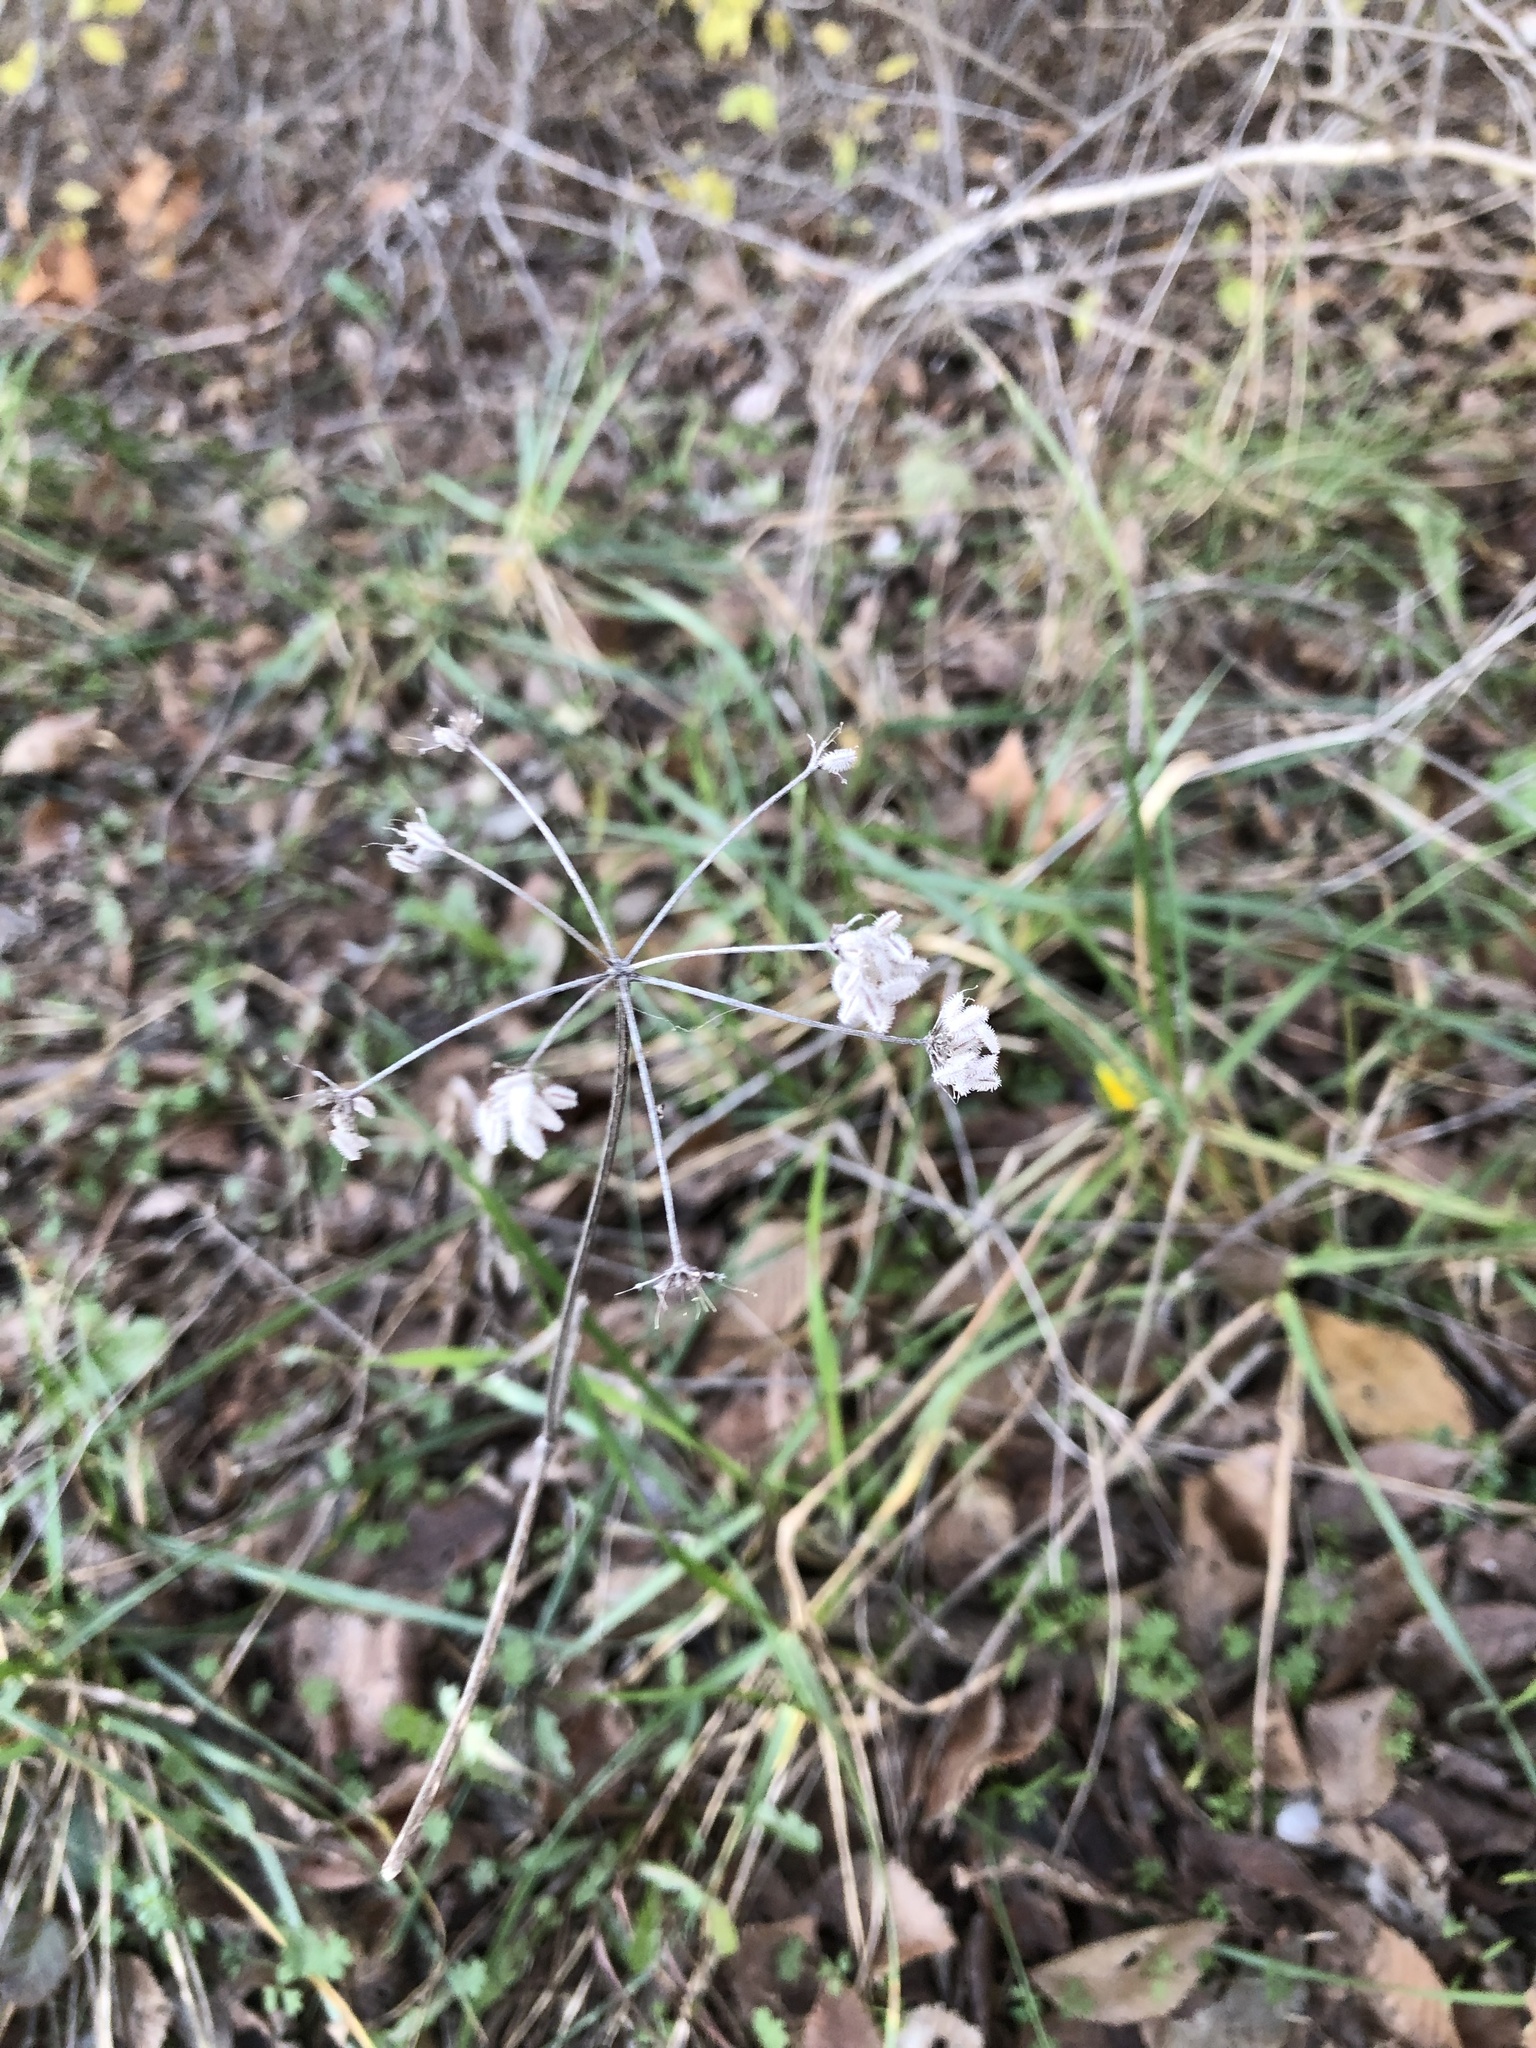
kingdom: Plantae
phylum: Tracheophyta
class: Magnoliopsida
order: Apiales
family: Apiaceae
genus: Torilis
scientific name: Torilis arvensis
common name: Spreading hedge-parsley
